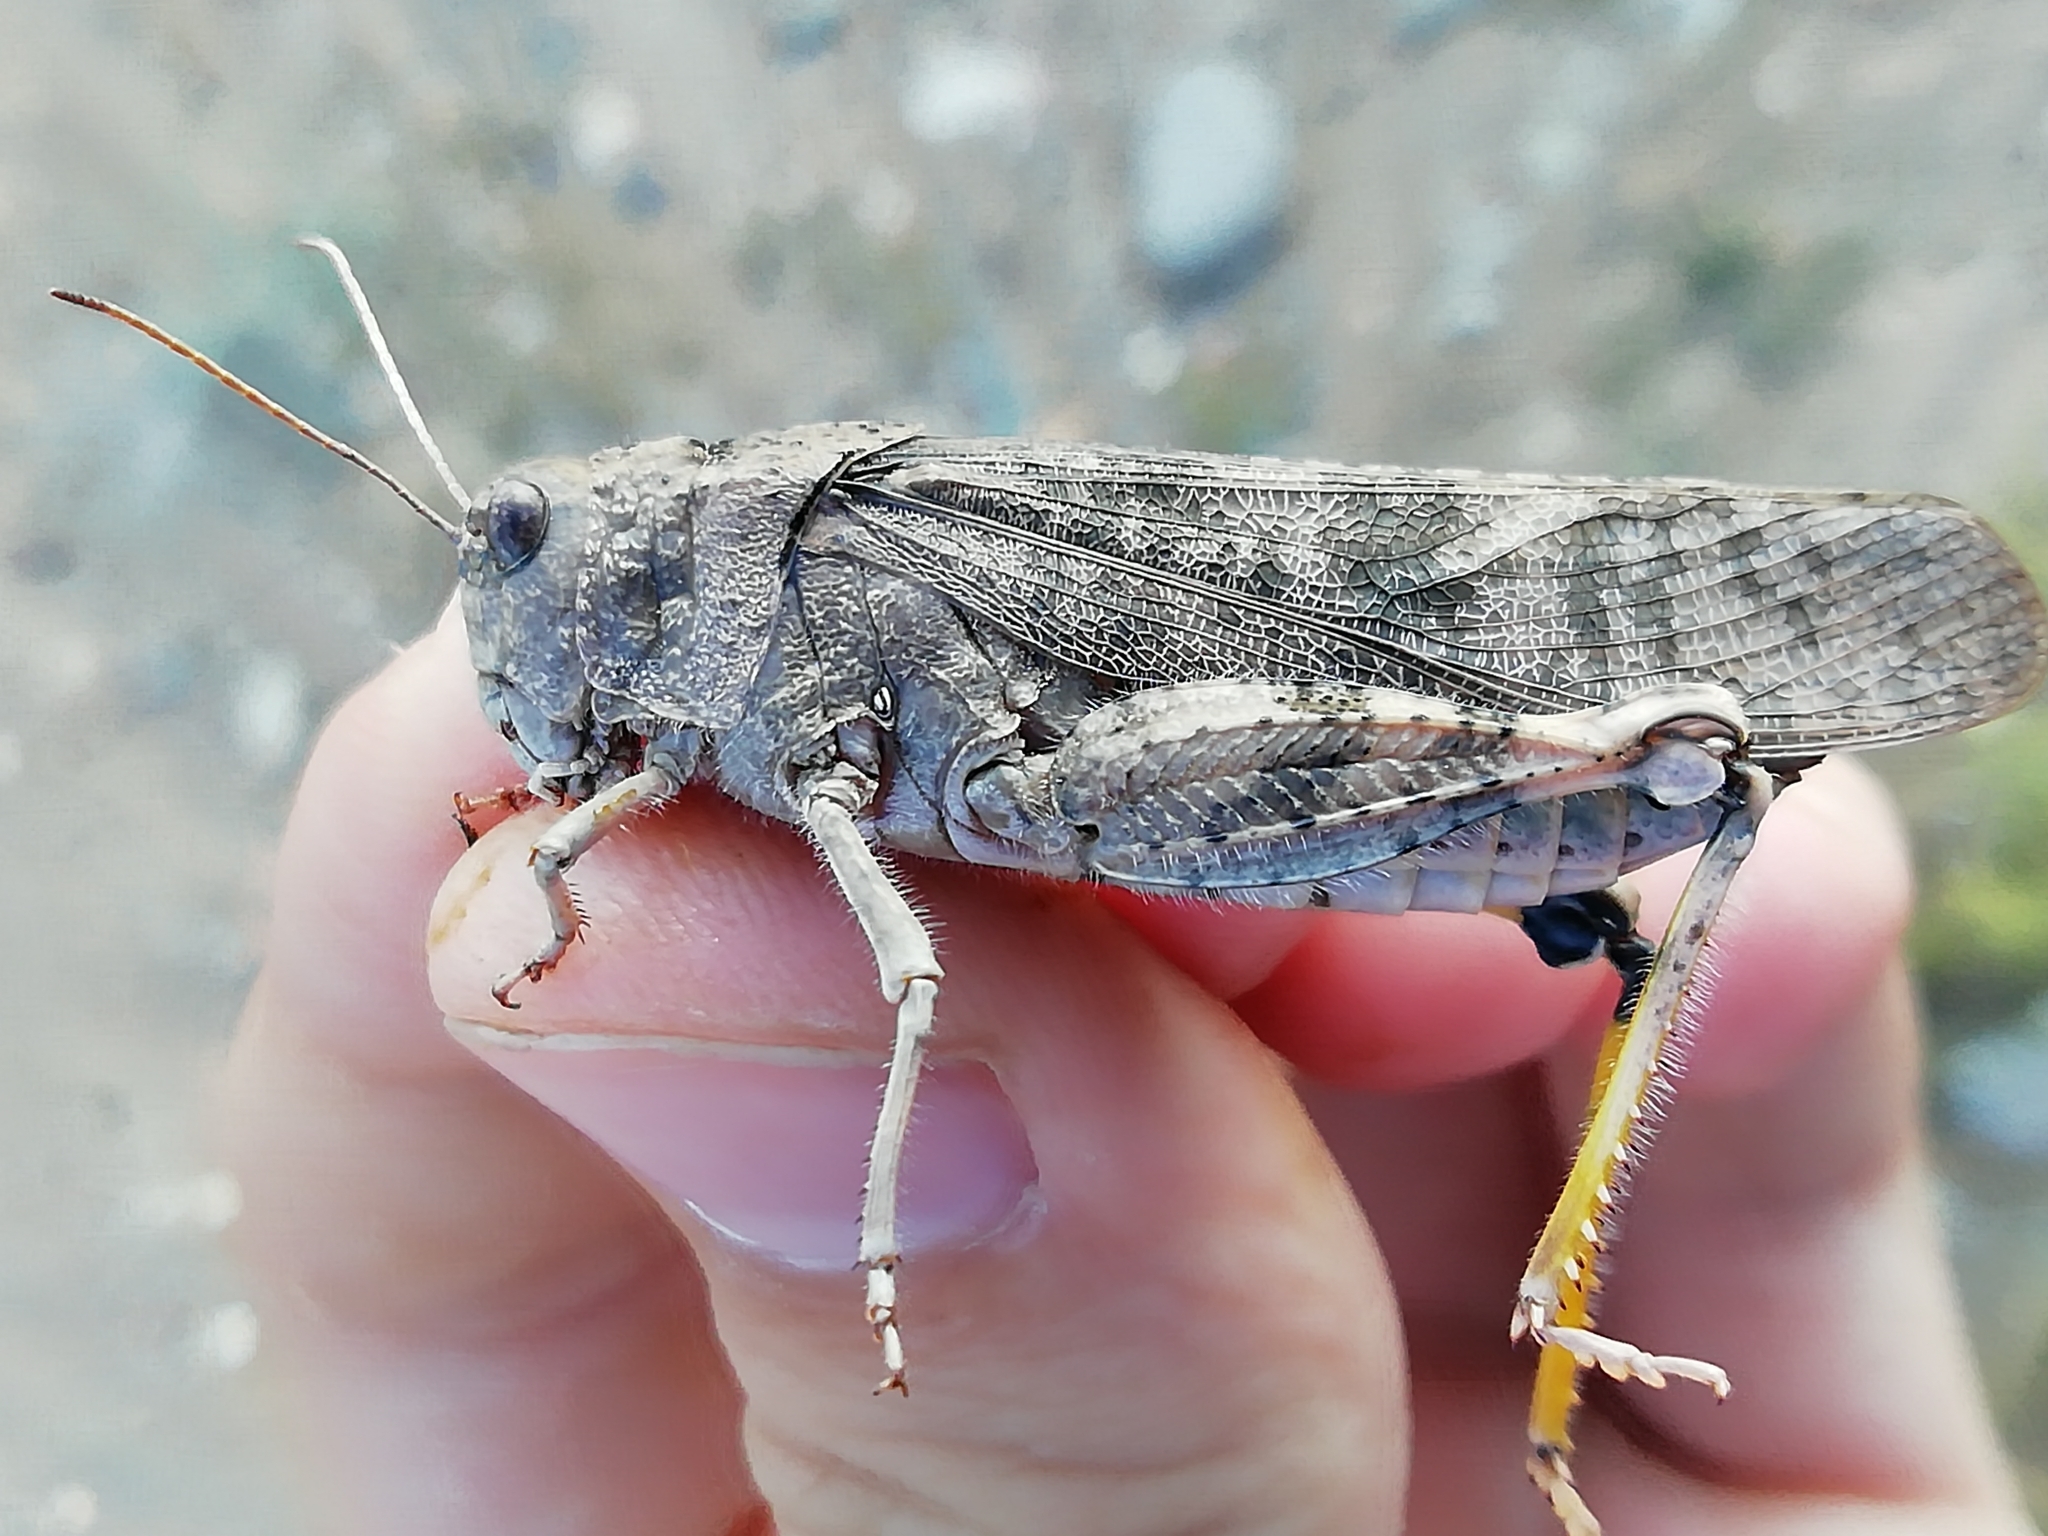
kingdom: Animalia
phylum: Arthropoda
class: Insecta
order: Orthoptera
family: Acrididae
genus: Bryodemella
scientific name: Bryodemella holdereri
